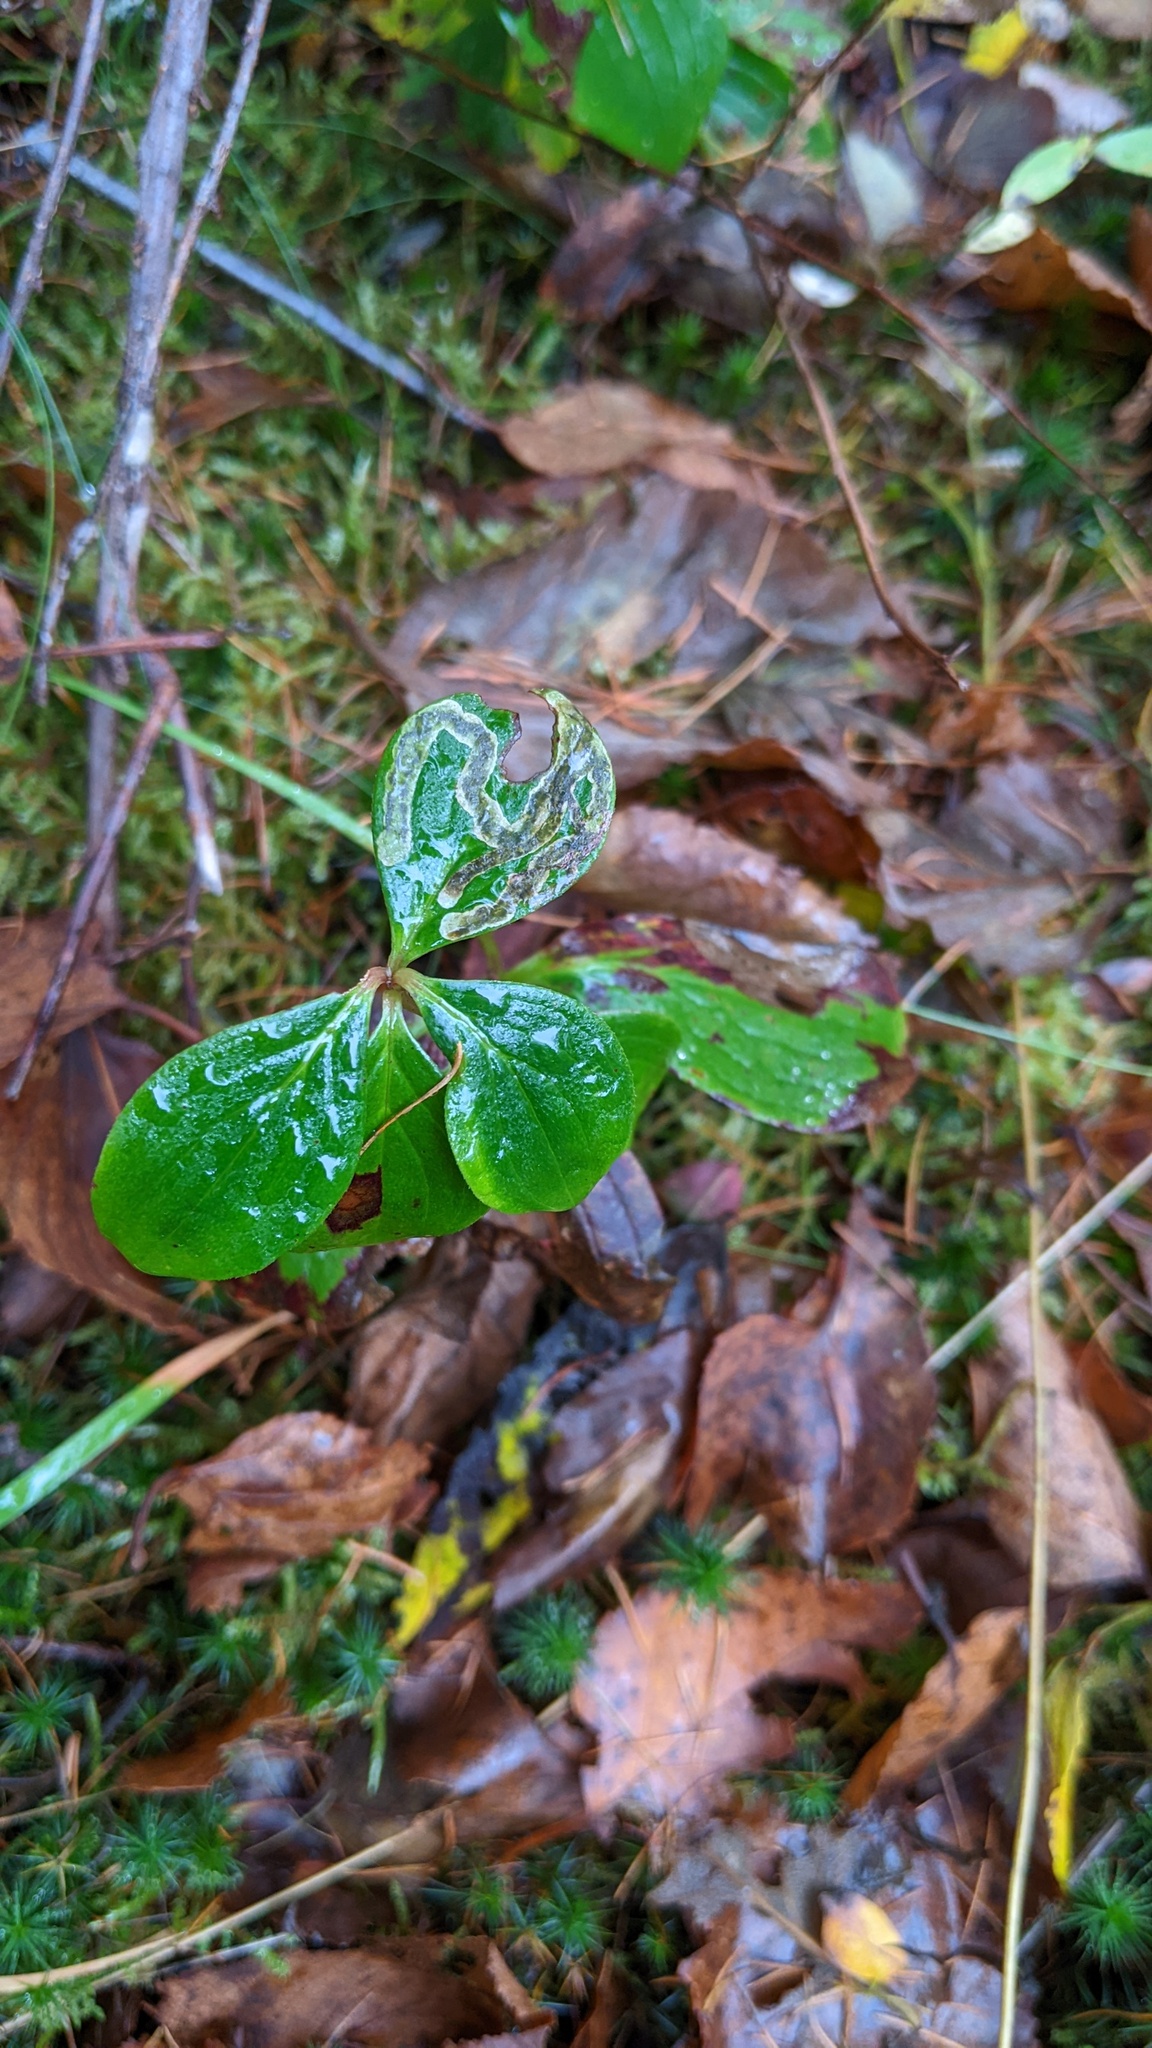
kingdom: Plantae
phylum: Tracheophyta
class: Magnoliopsida
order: Cornales
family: Cornaceae
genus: Cornus
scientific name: Cornus canadensis
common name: Creeping dogwood
